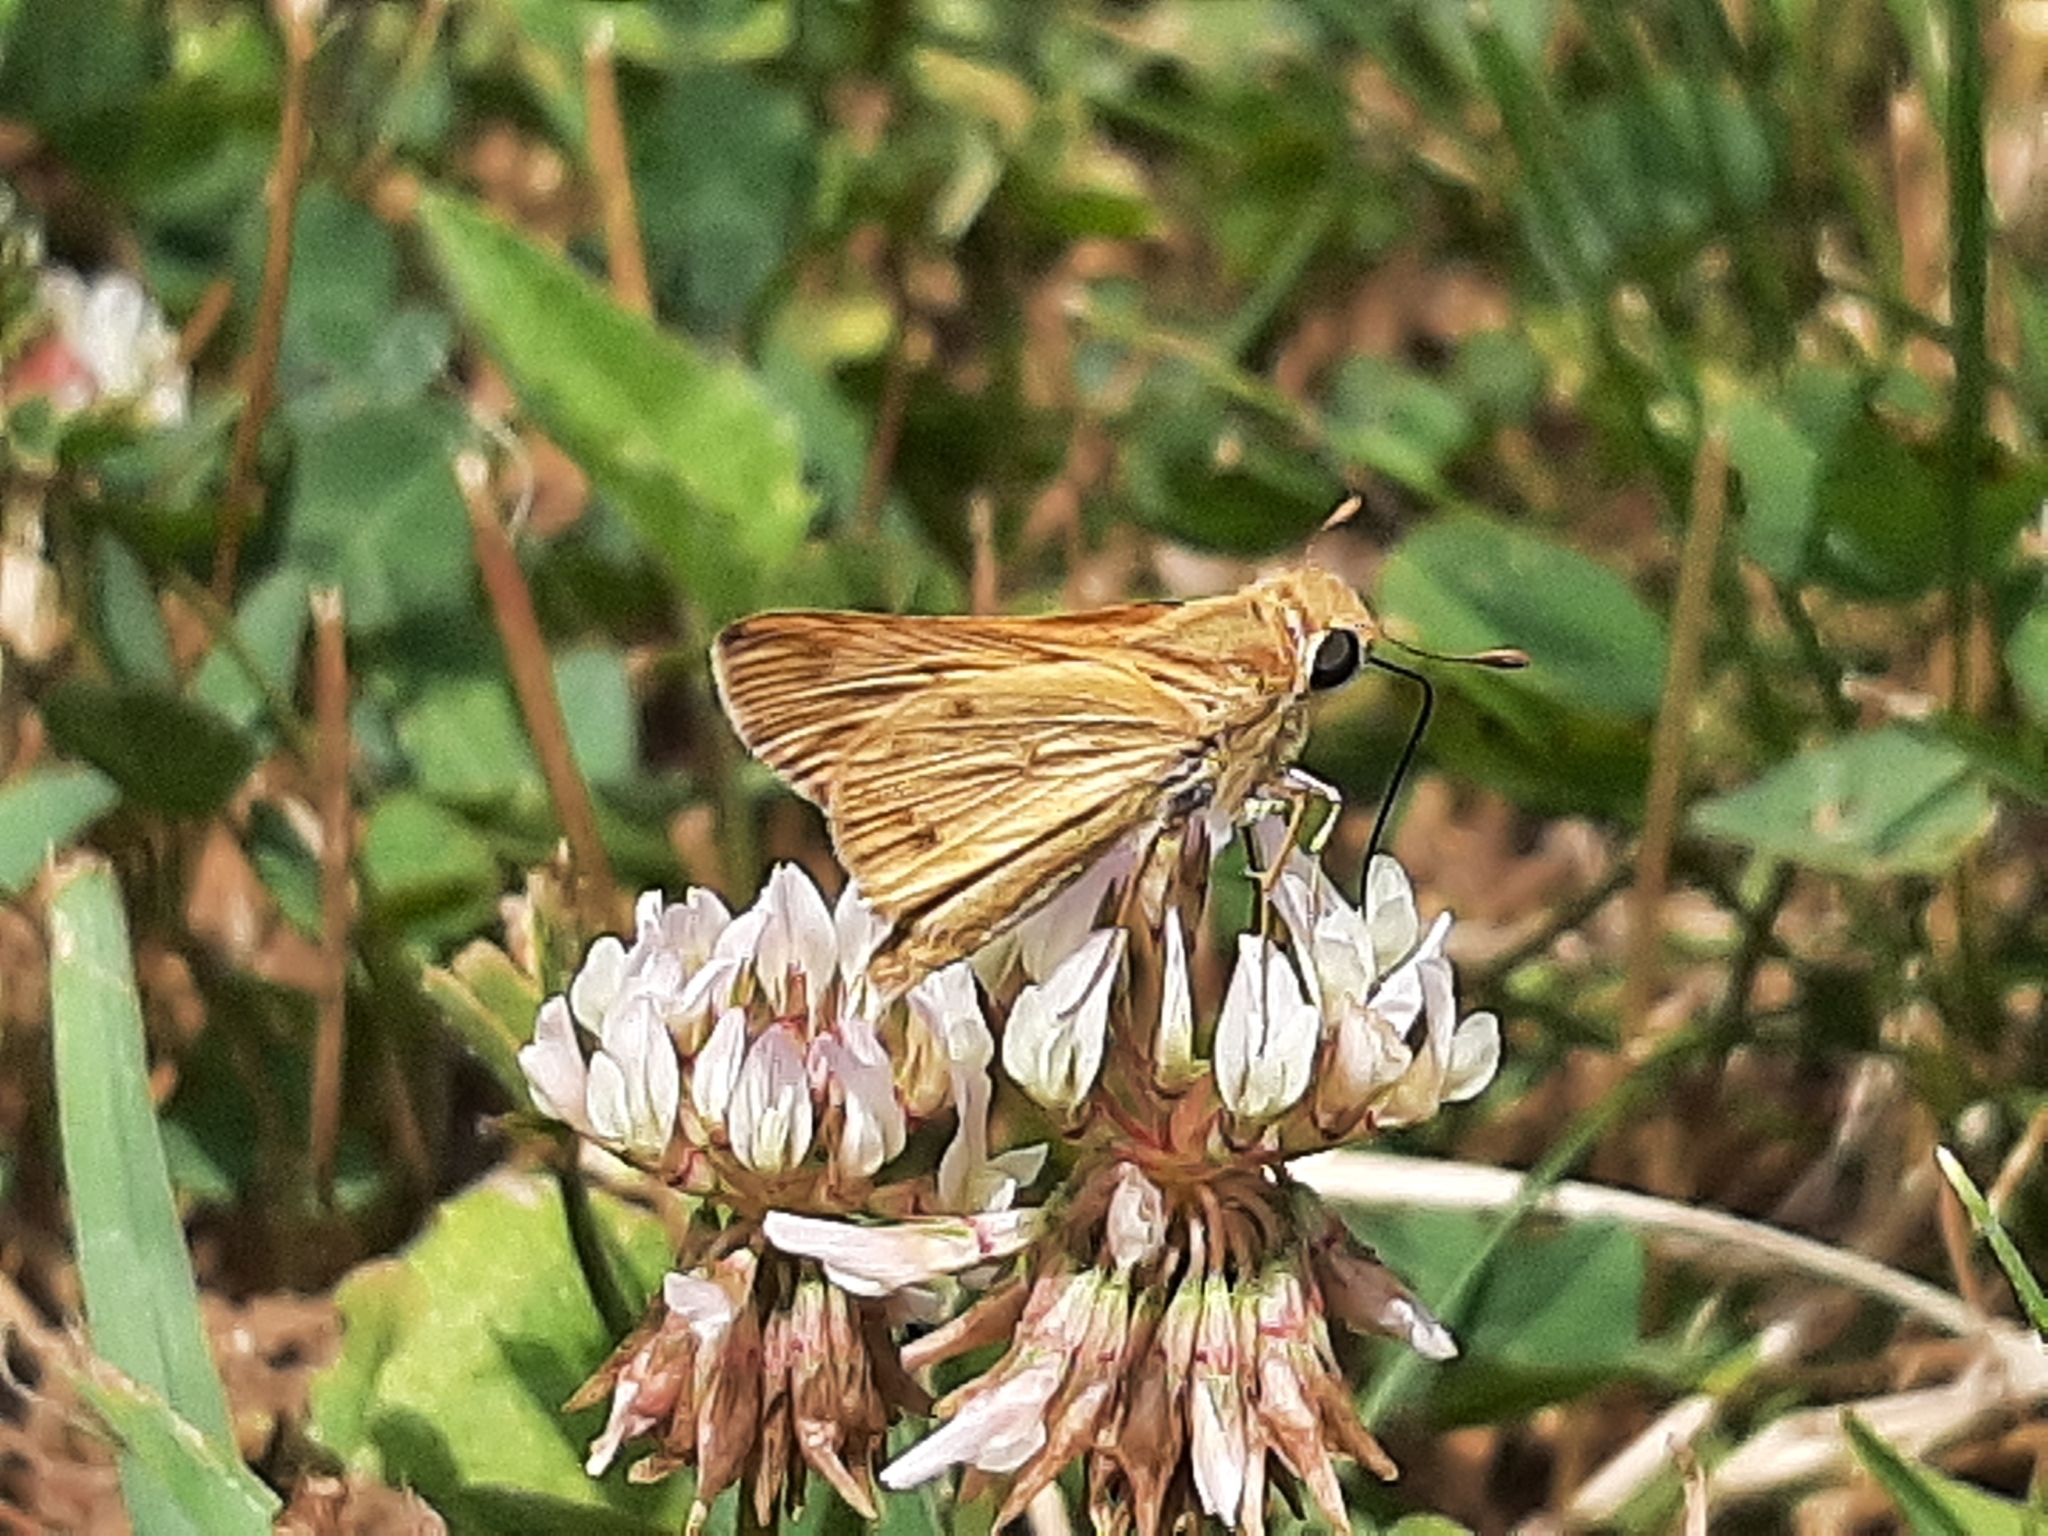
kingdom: Animalia
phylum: Arthropoda
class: Insecta
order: Lepidoptera
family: Hesperiidae
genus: Hylephila
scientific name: Hylephila phyleus
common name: Fiery skipper
